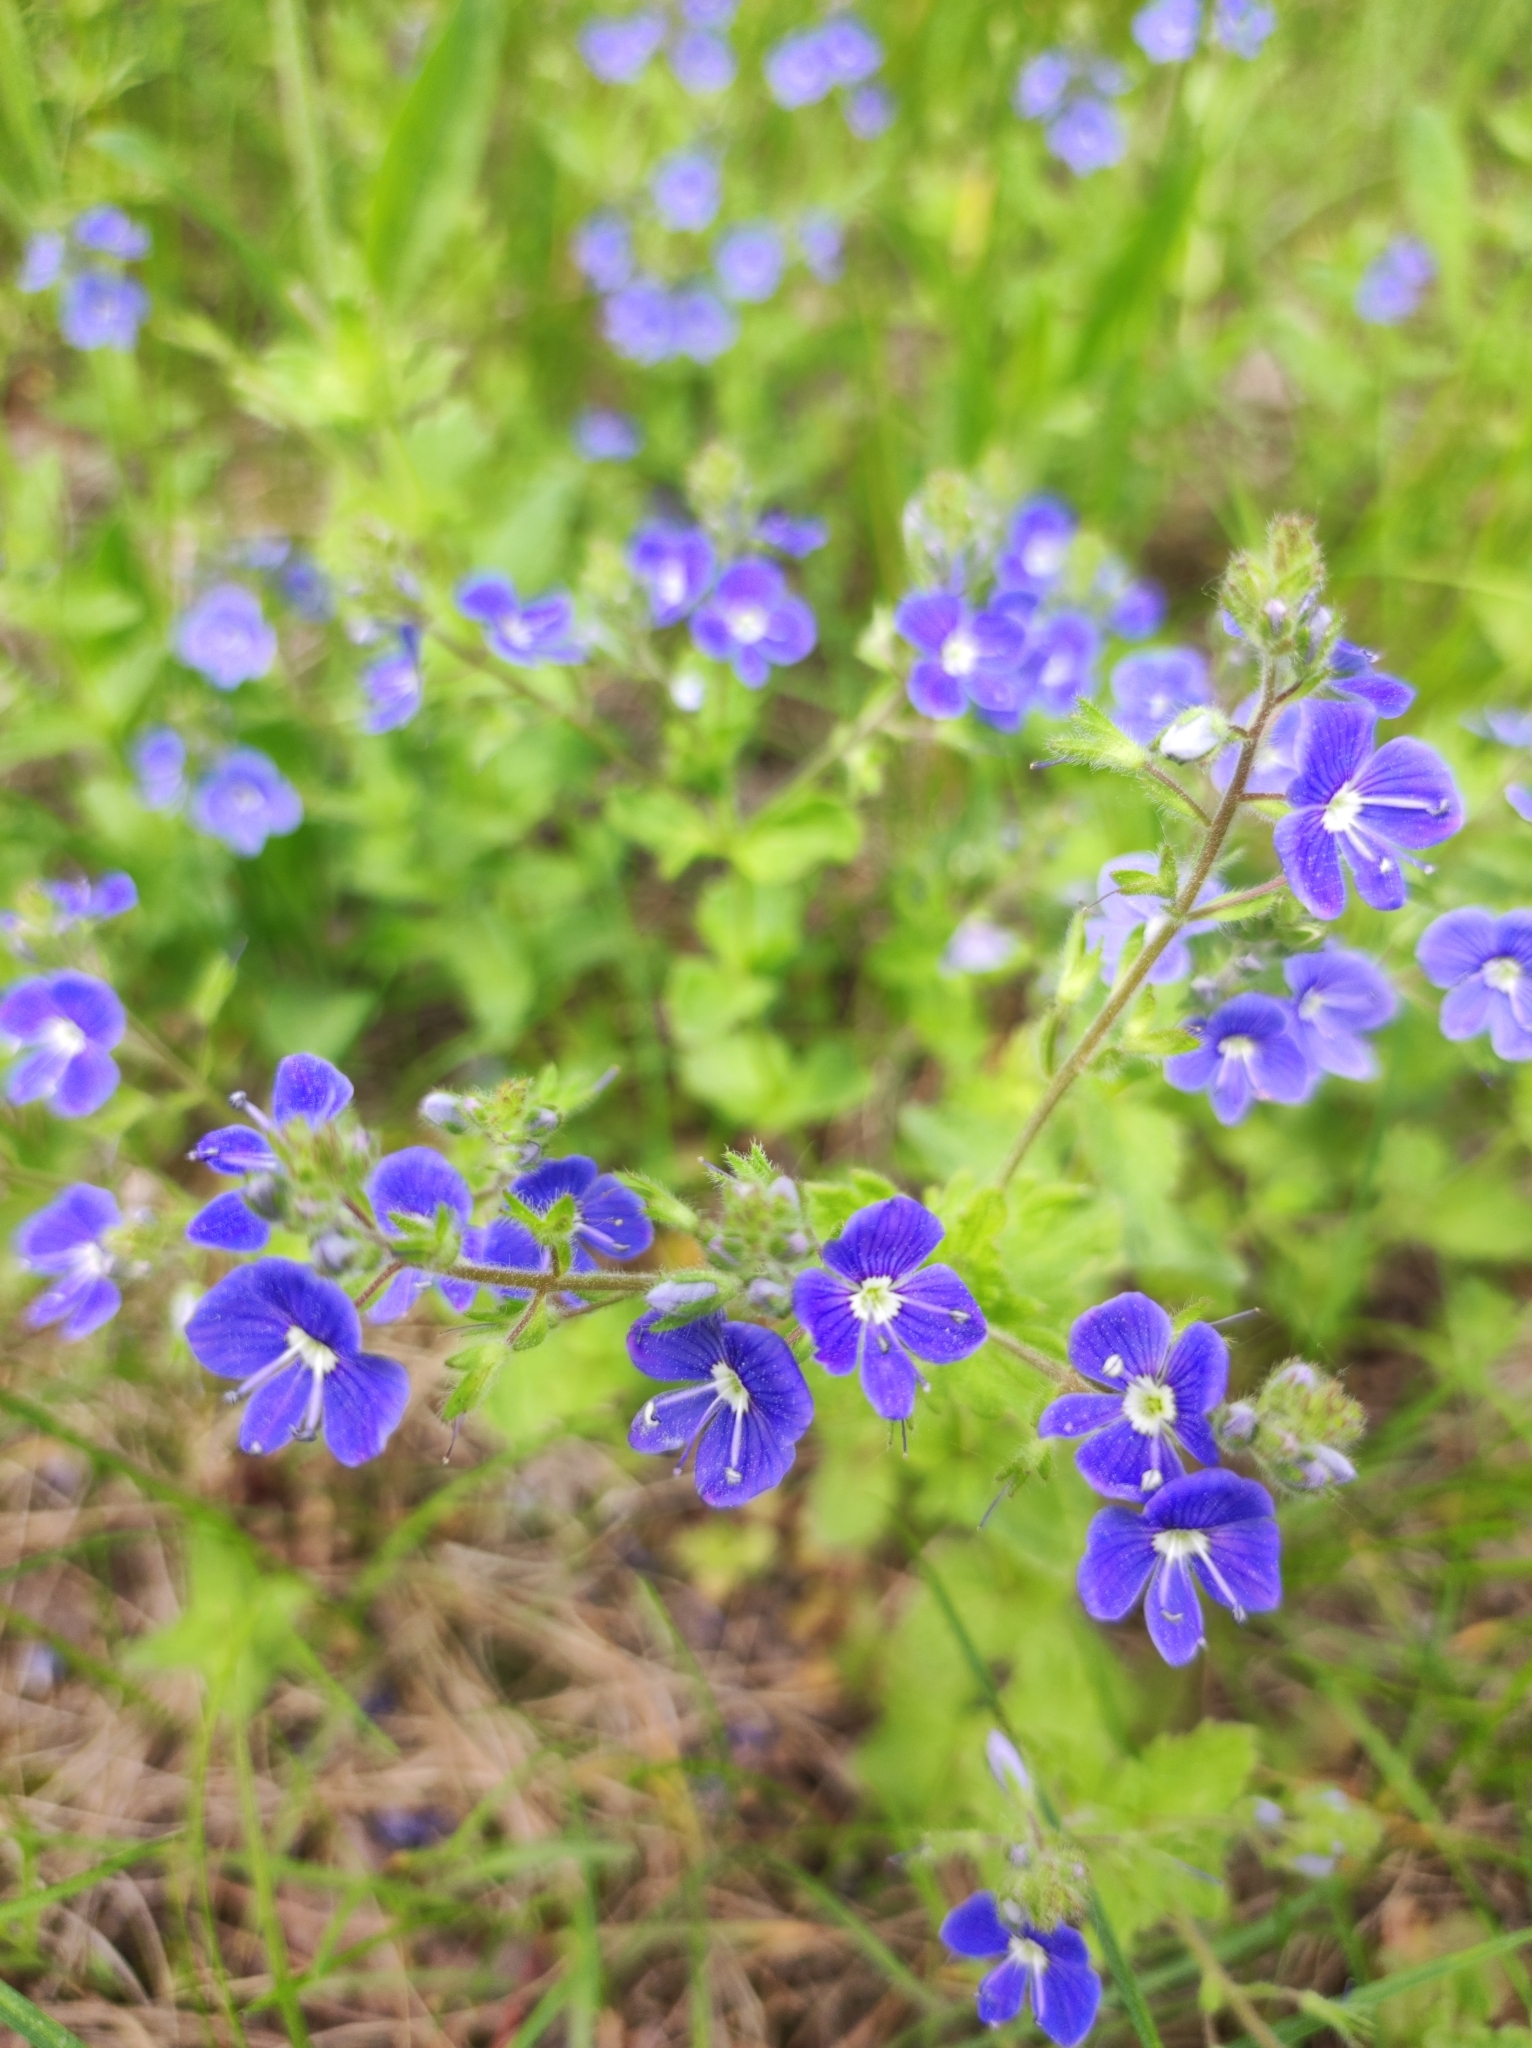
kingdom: Plantae
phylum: Tracheophyta
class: Magnoliopsida
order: Lamiales
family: Plantaginaceae
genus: Veronica
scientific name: Veronica chamaedrys
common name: Germander speedwell
